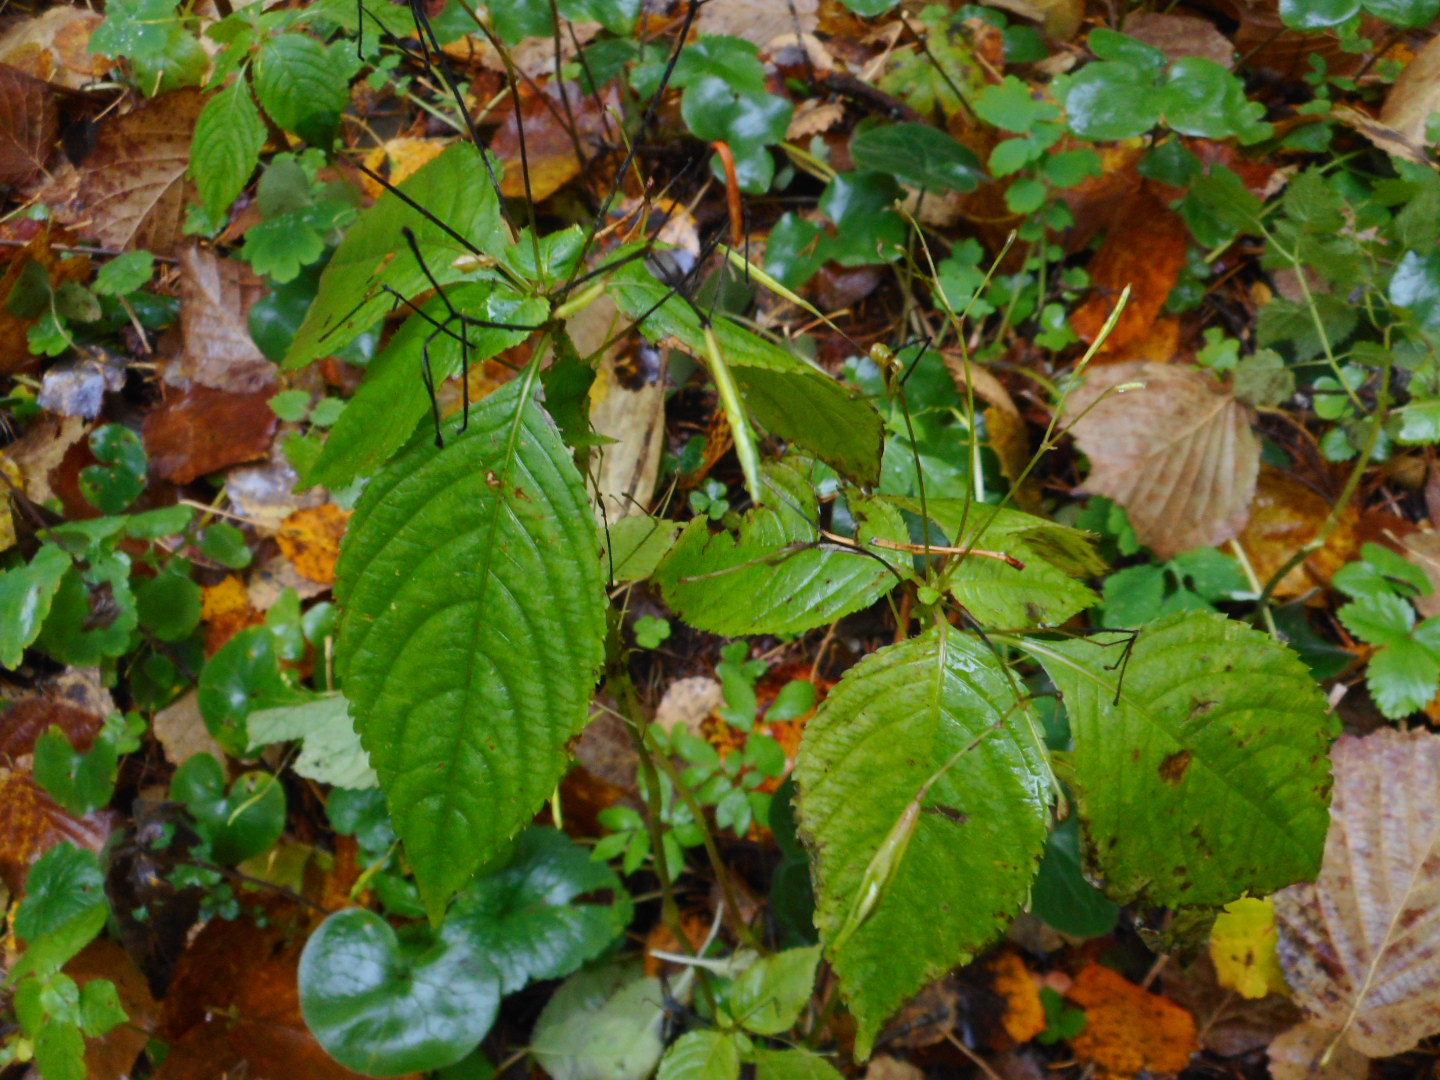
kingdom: Plantae
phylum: Tracheophyta
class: Magnoliopsida
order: Ericales
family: Balsaminaceae
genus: Impatiens
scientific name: Impatiens parviflora
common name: Small balsam
